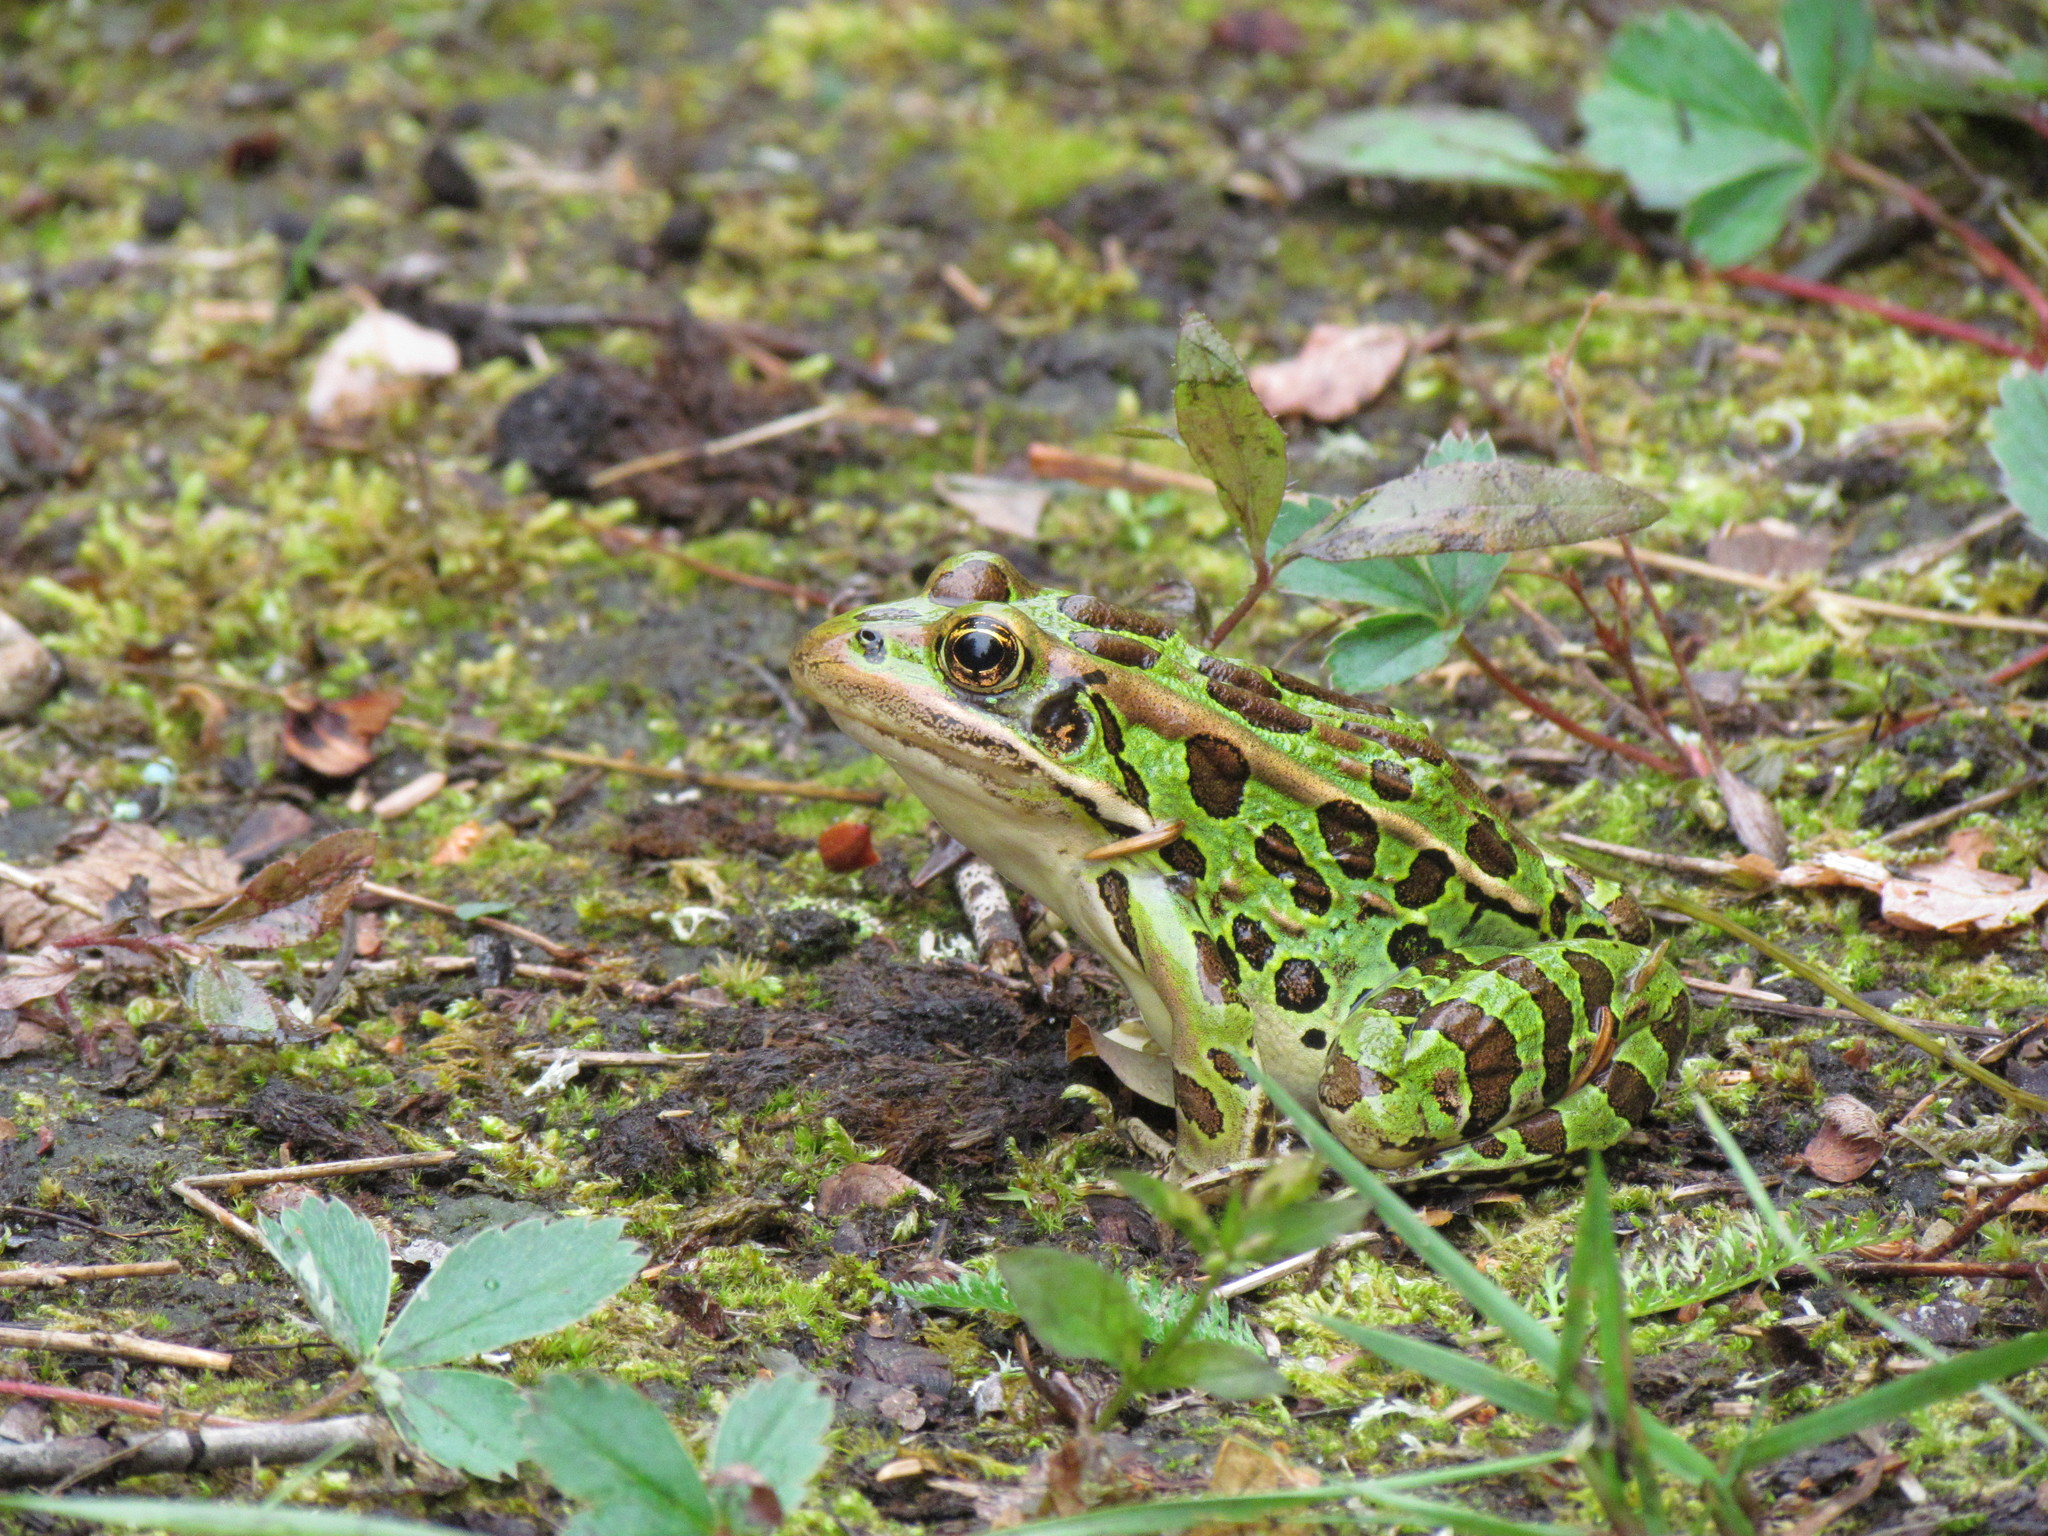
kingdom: Animalia
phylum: Chordata
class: Amphibia
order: Anura
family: Ranidae
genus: Lithobates
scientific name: Lithobates pipiens
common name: Northern leopard frog
